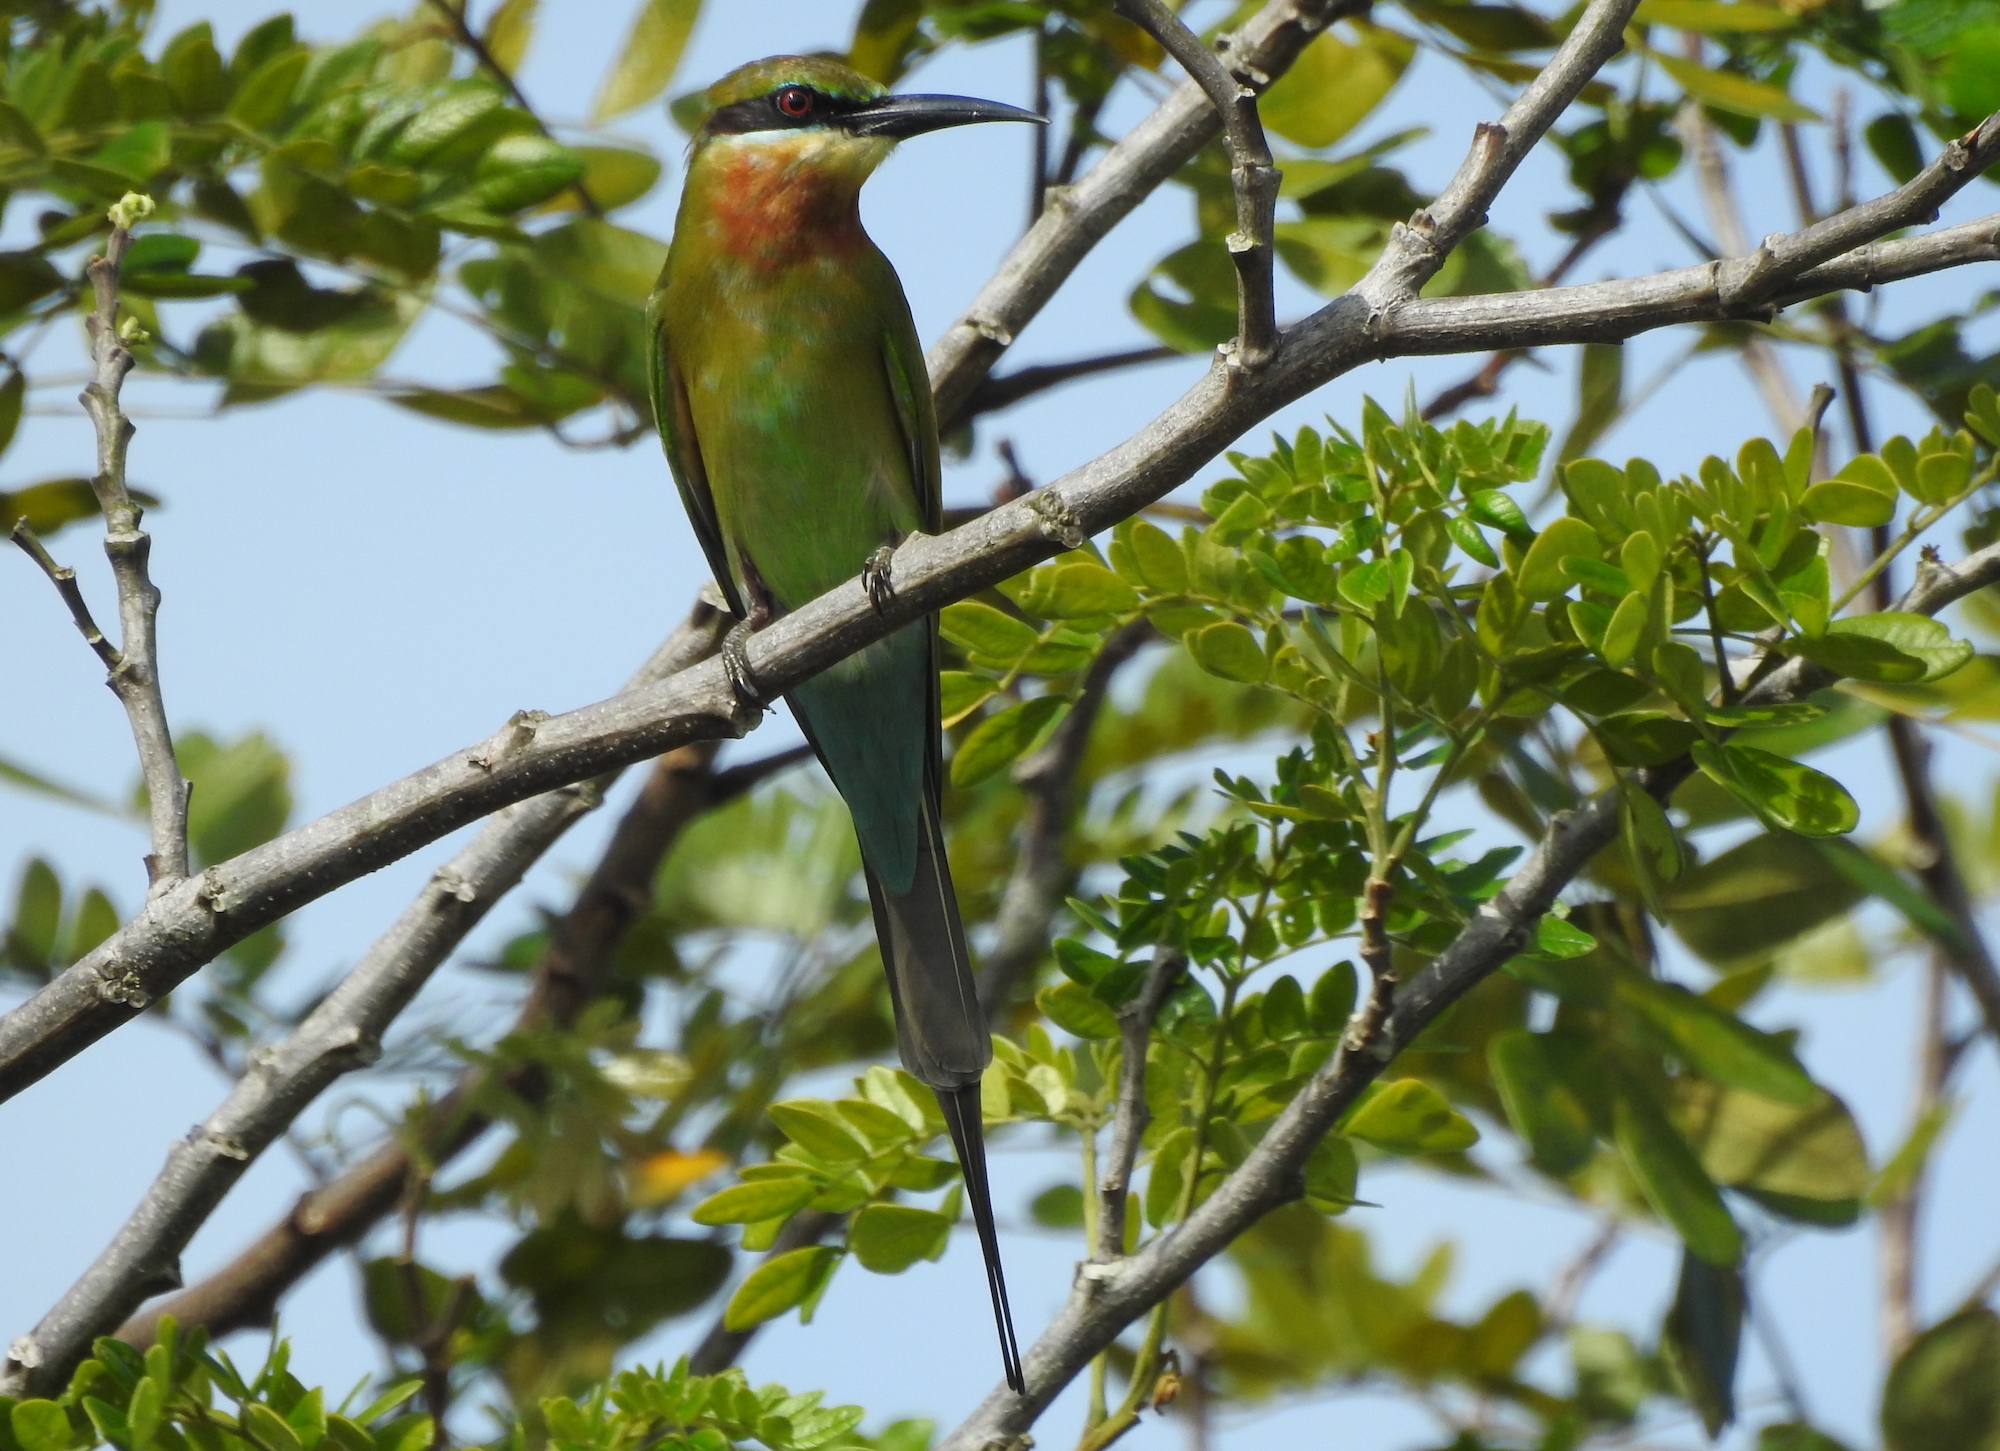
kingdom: Animalia
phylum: Chordata
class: Aves
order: Coraciiformes
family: Meropidae
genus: Merops
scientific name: Merops philippinus
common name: Blue-tailed bee-eater
